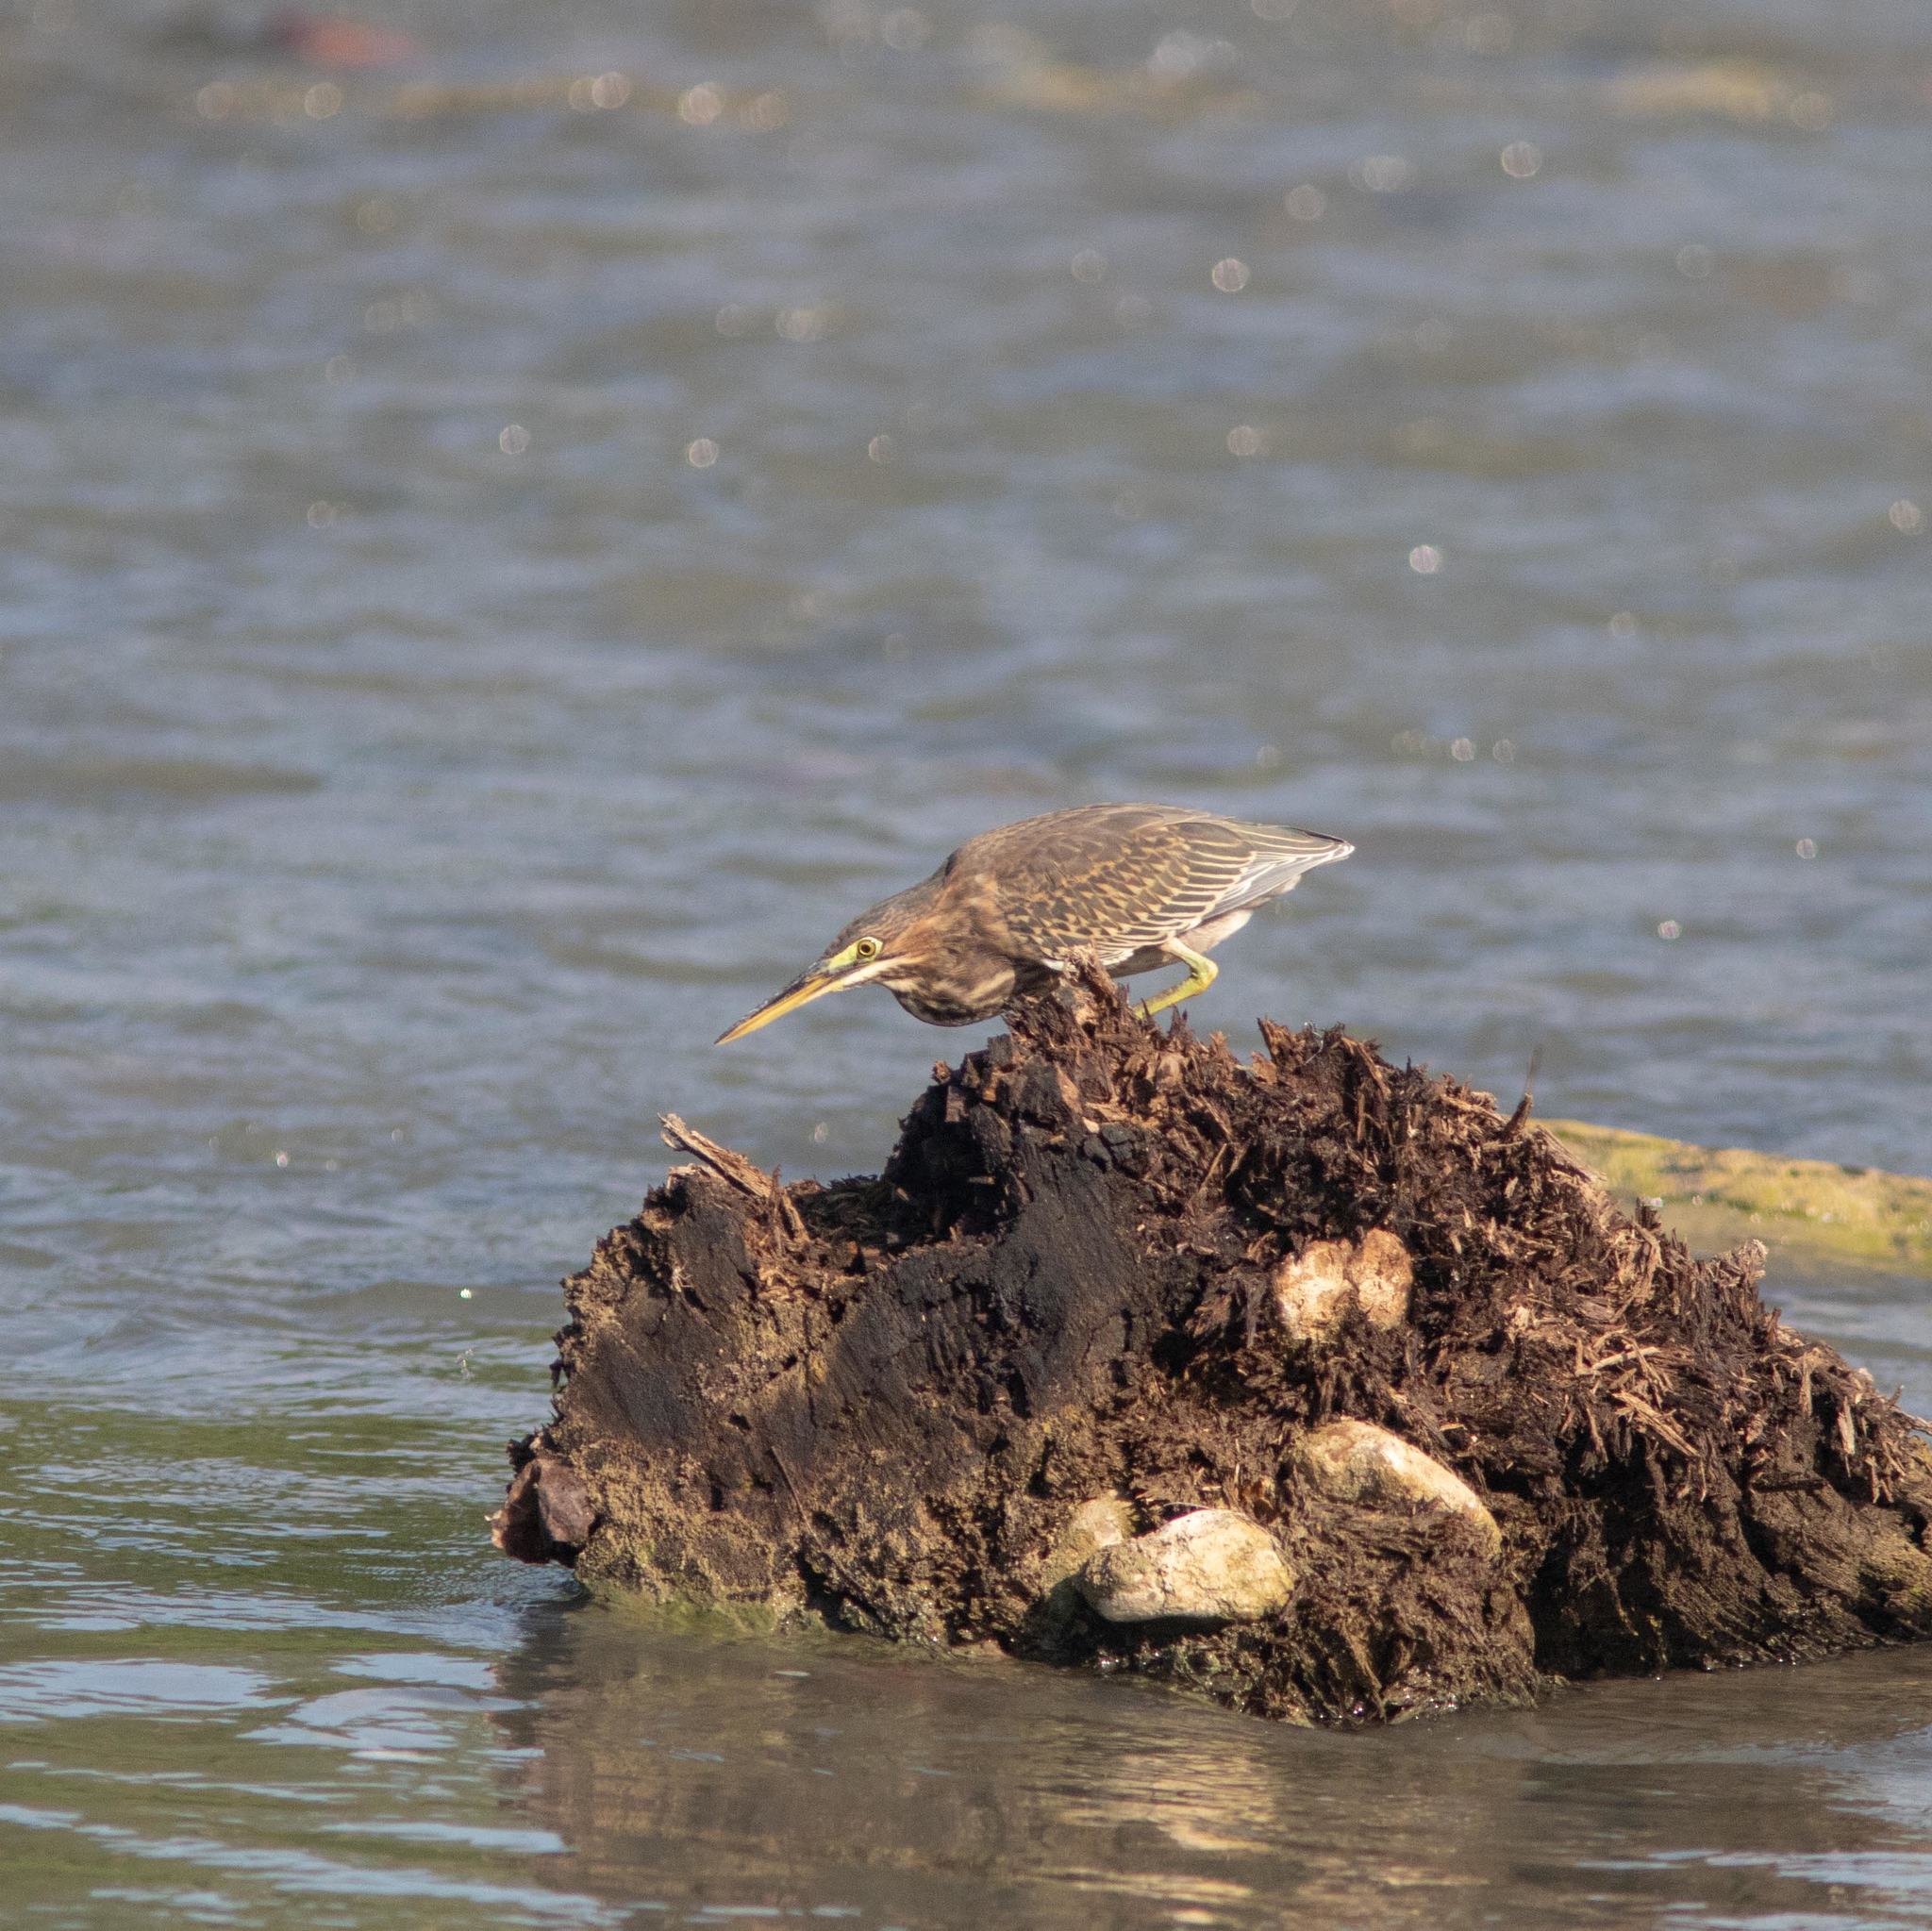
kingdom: Animalia
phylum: Chordata
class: Aves
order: Pelecaniformes
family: Ardeidae
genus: Butorides
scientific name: Butorides virescens
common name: Green heron
